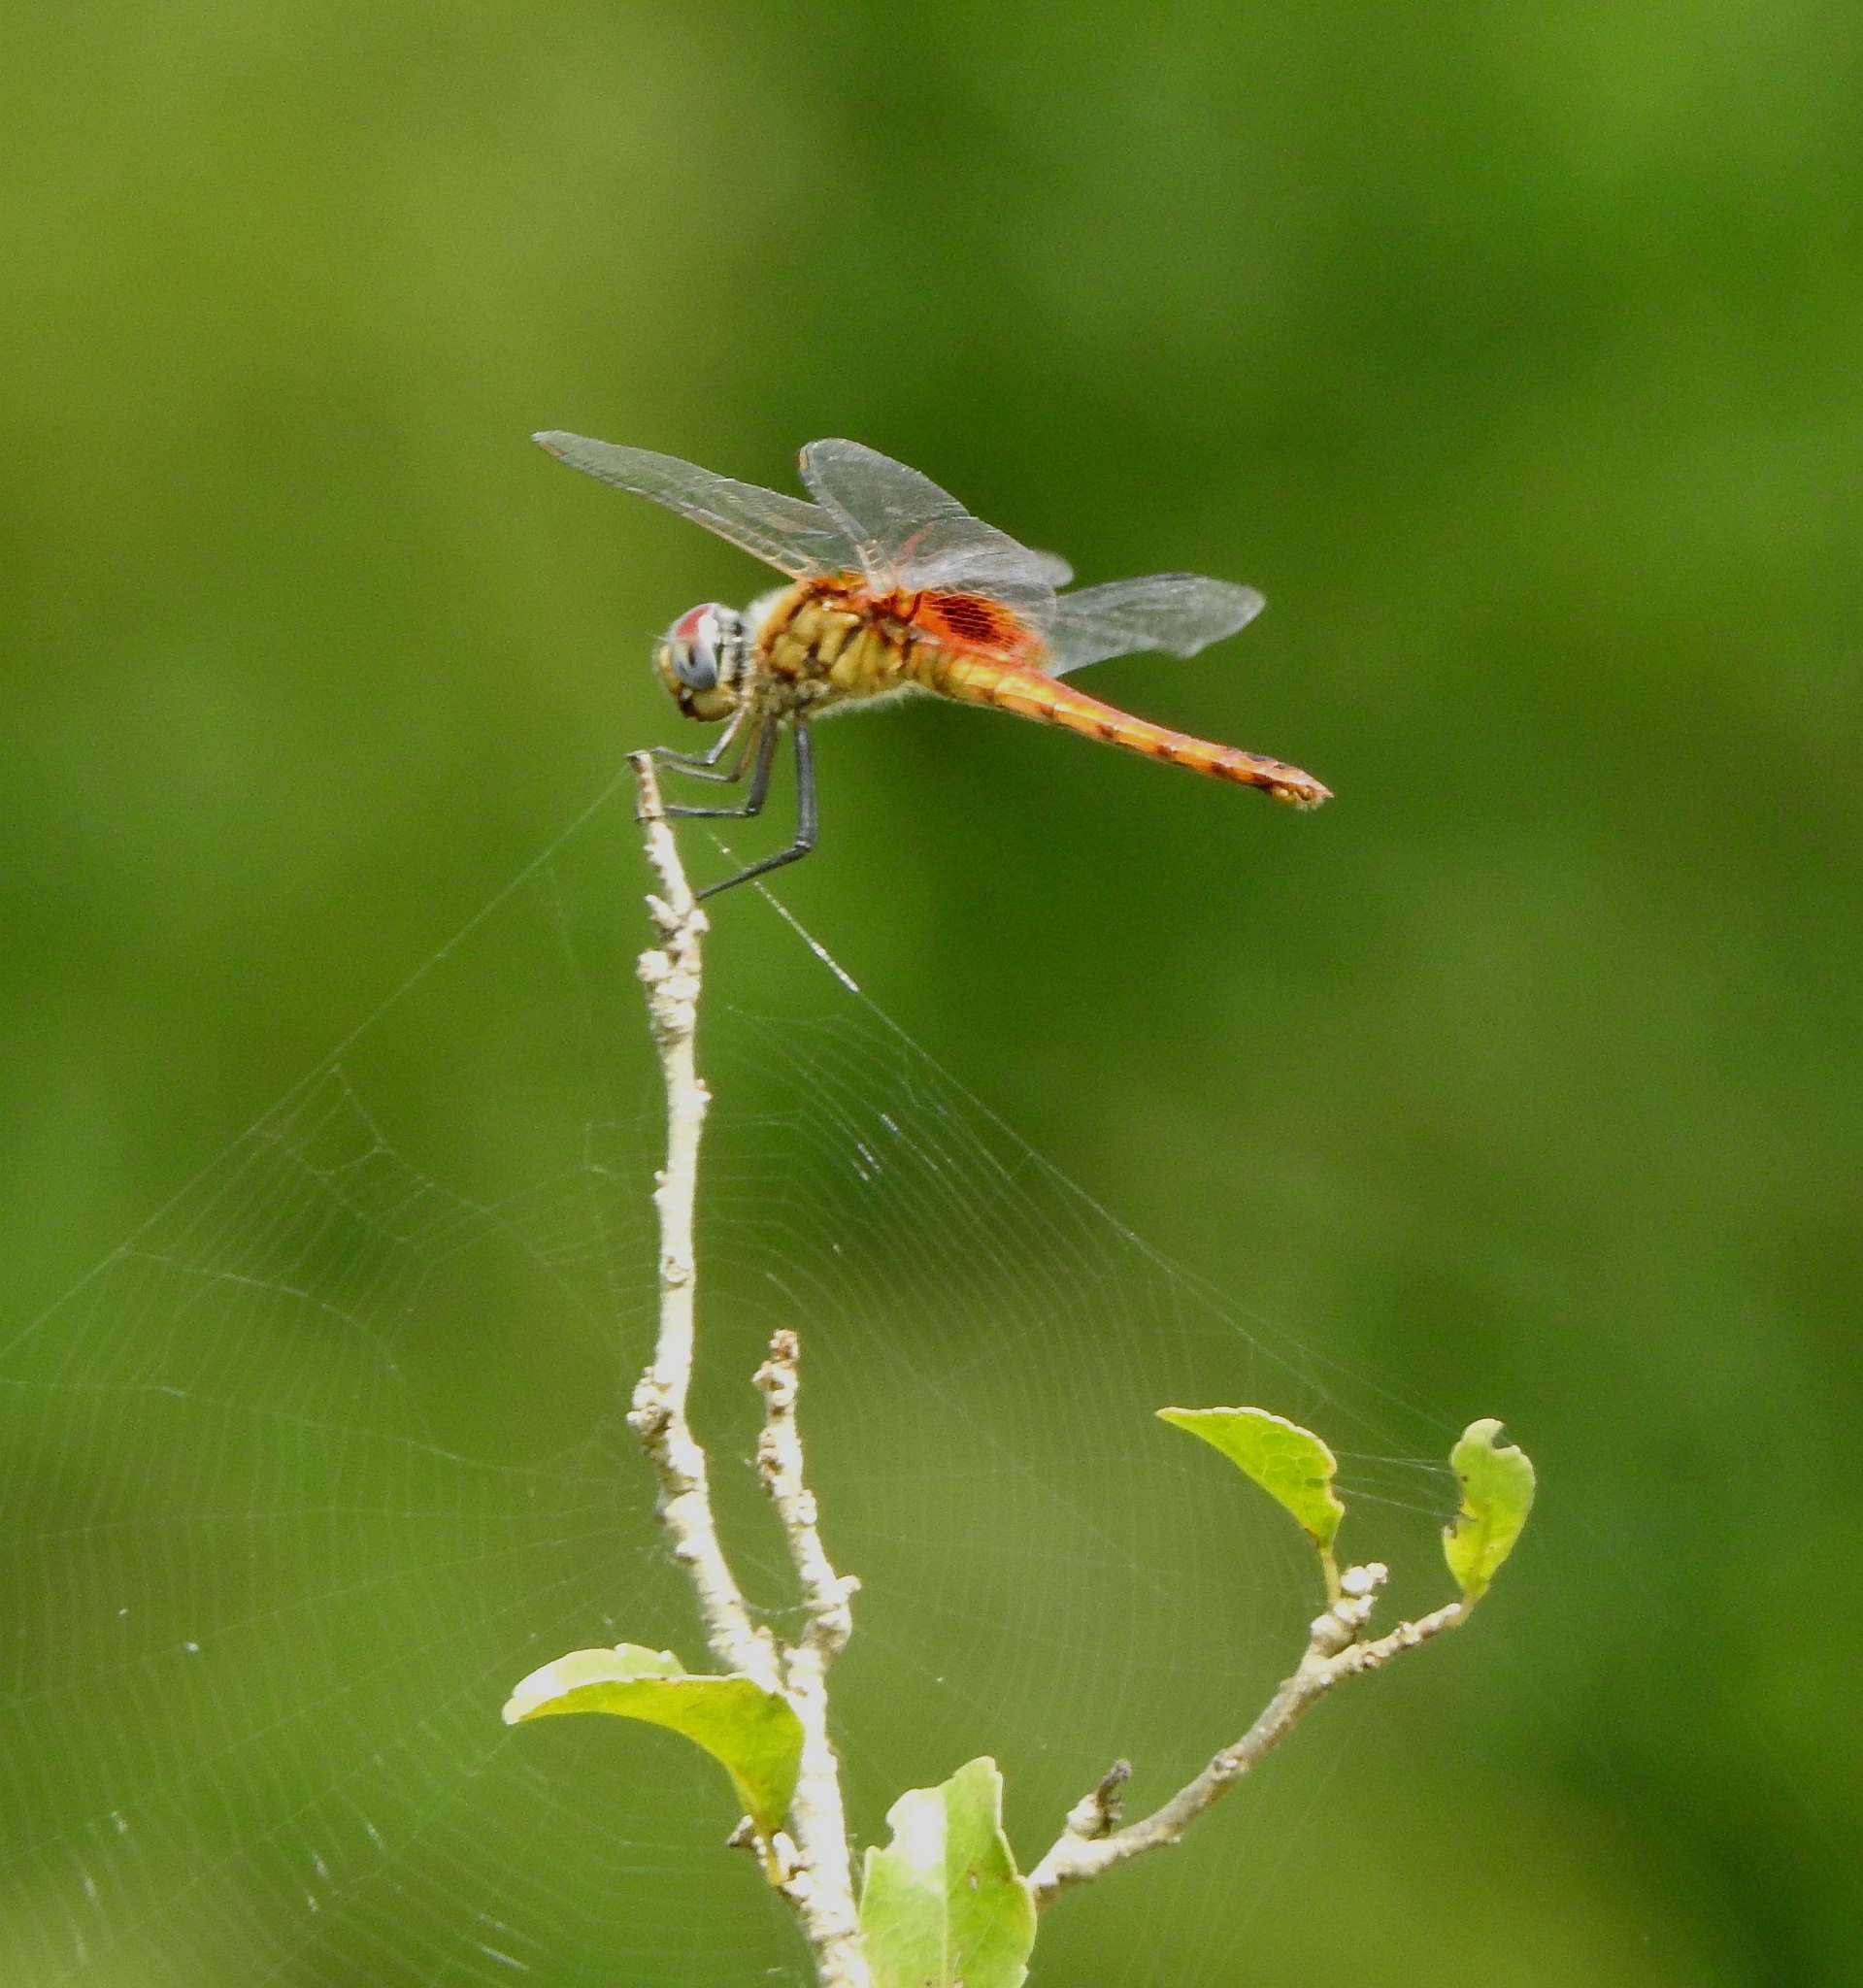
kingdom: Animalia
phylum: Arthropoda
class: Insecta
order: Odonata
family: Libellulidae
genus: Urothemis
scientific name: Urothemis signata
